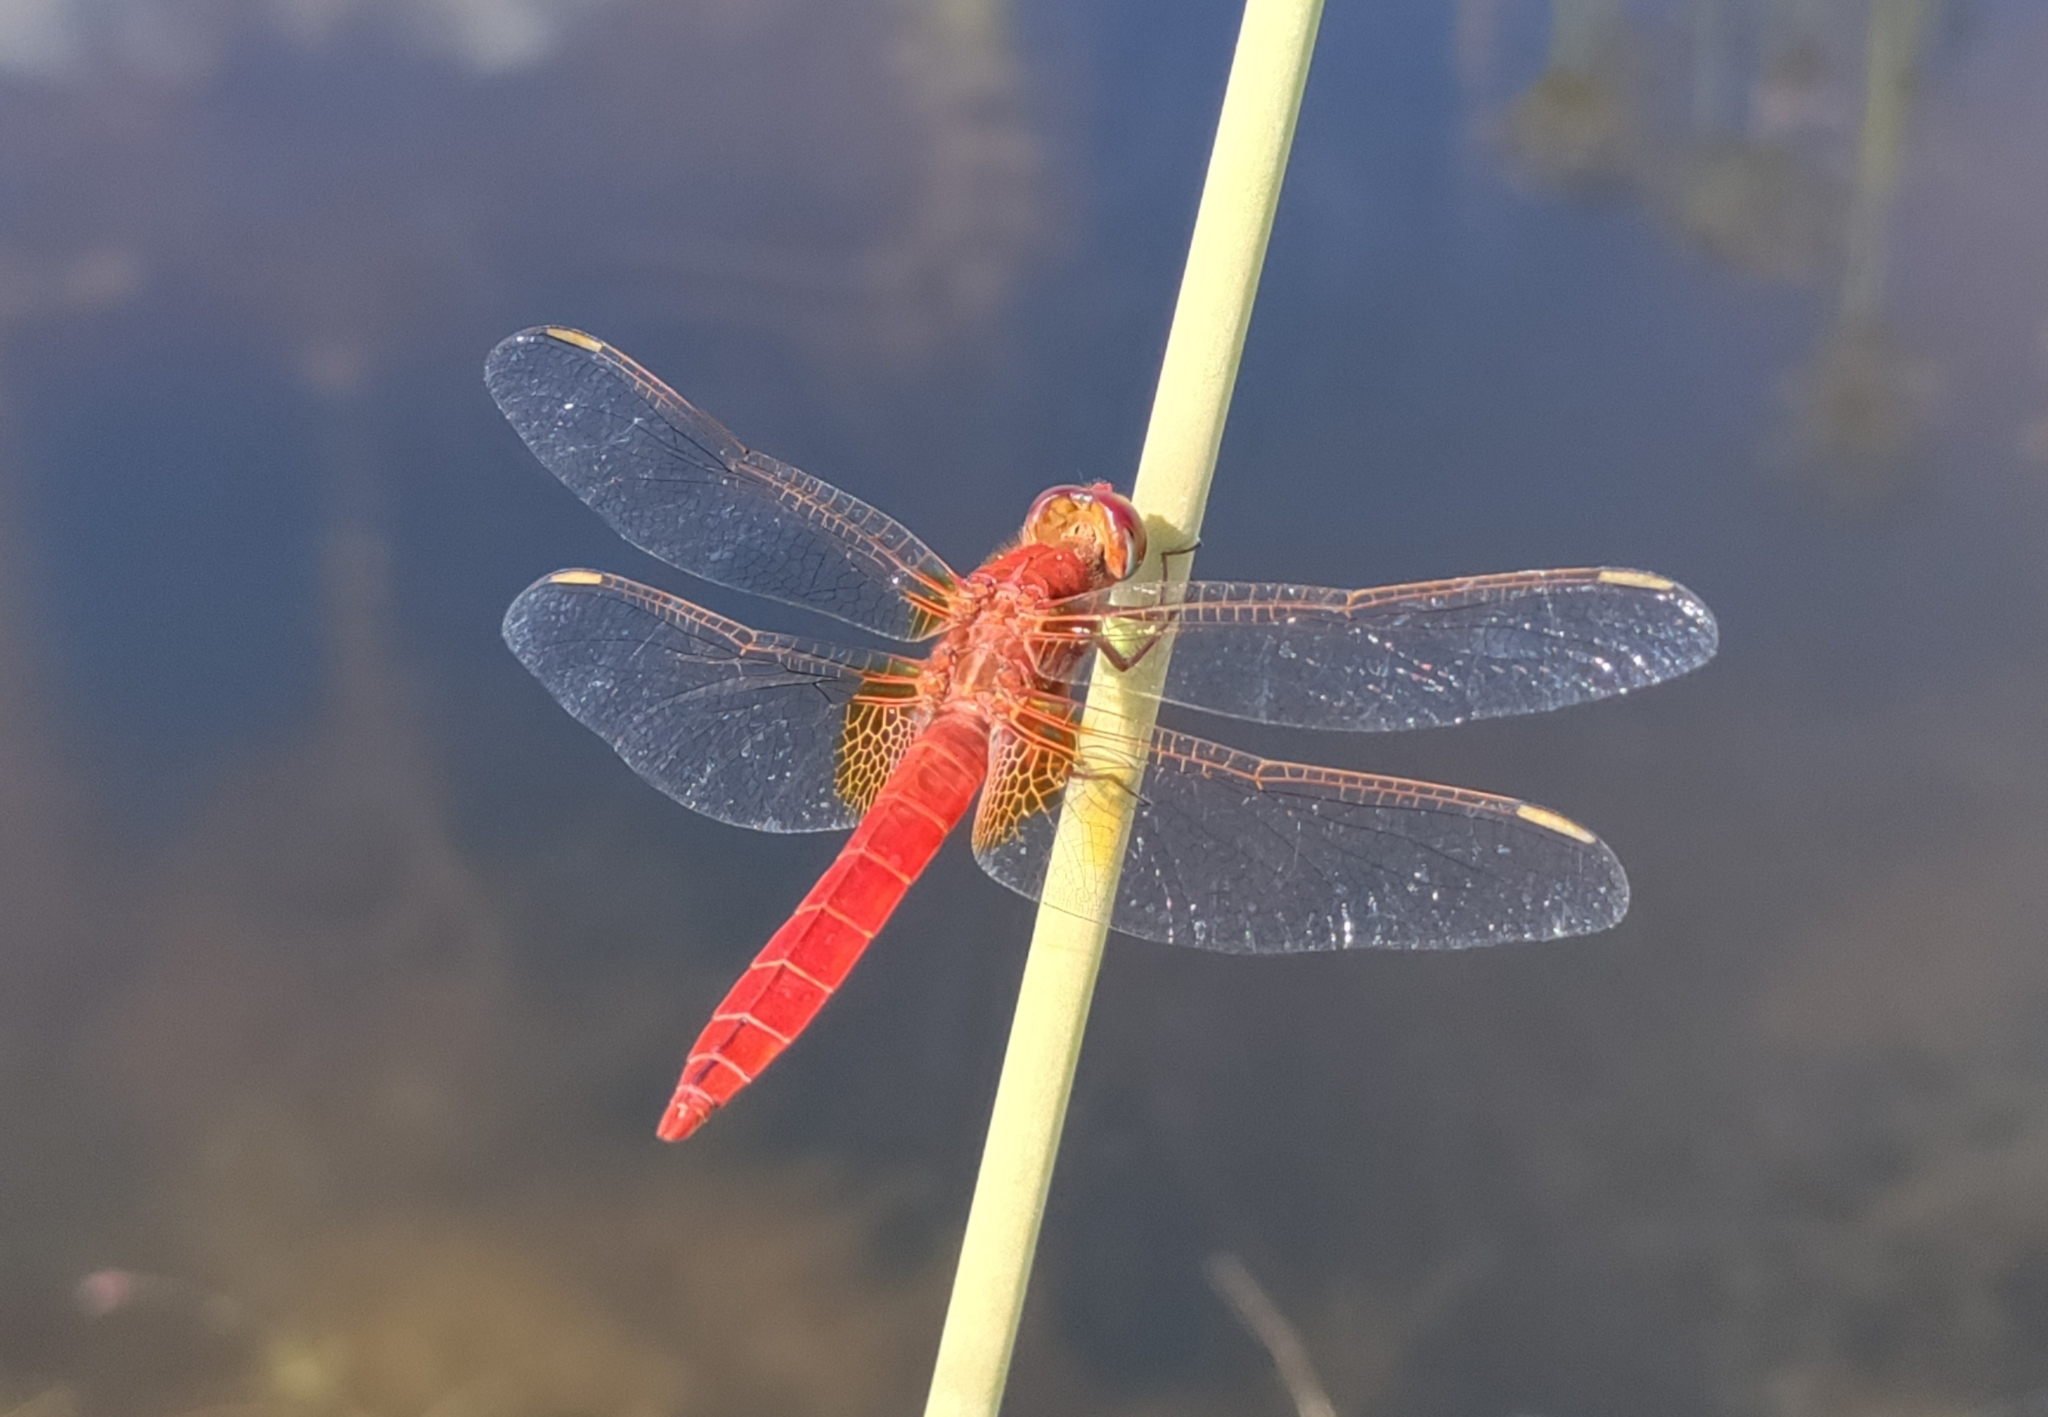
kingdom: Animalia
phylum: Arthropoda
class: Insecta
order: Odonata
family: Libellulidae
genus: Crocothemis
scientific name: Crocothemis erythraea
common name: Scarlet dragonfly
